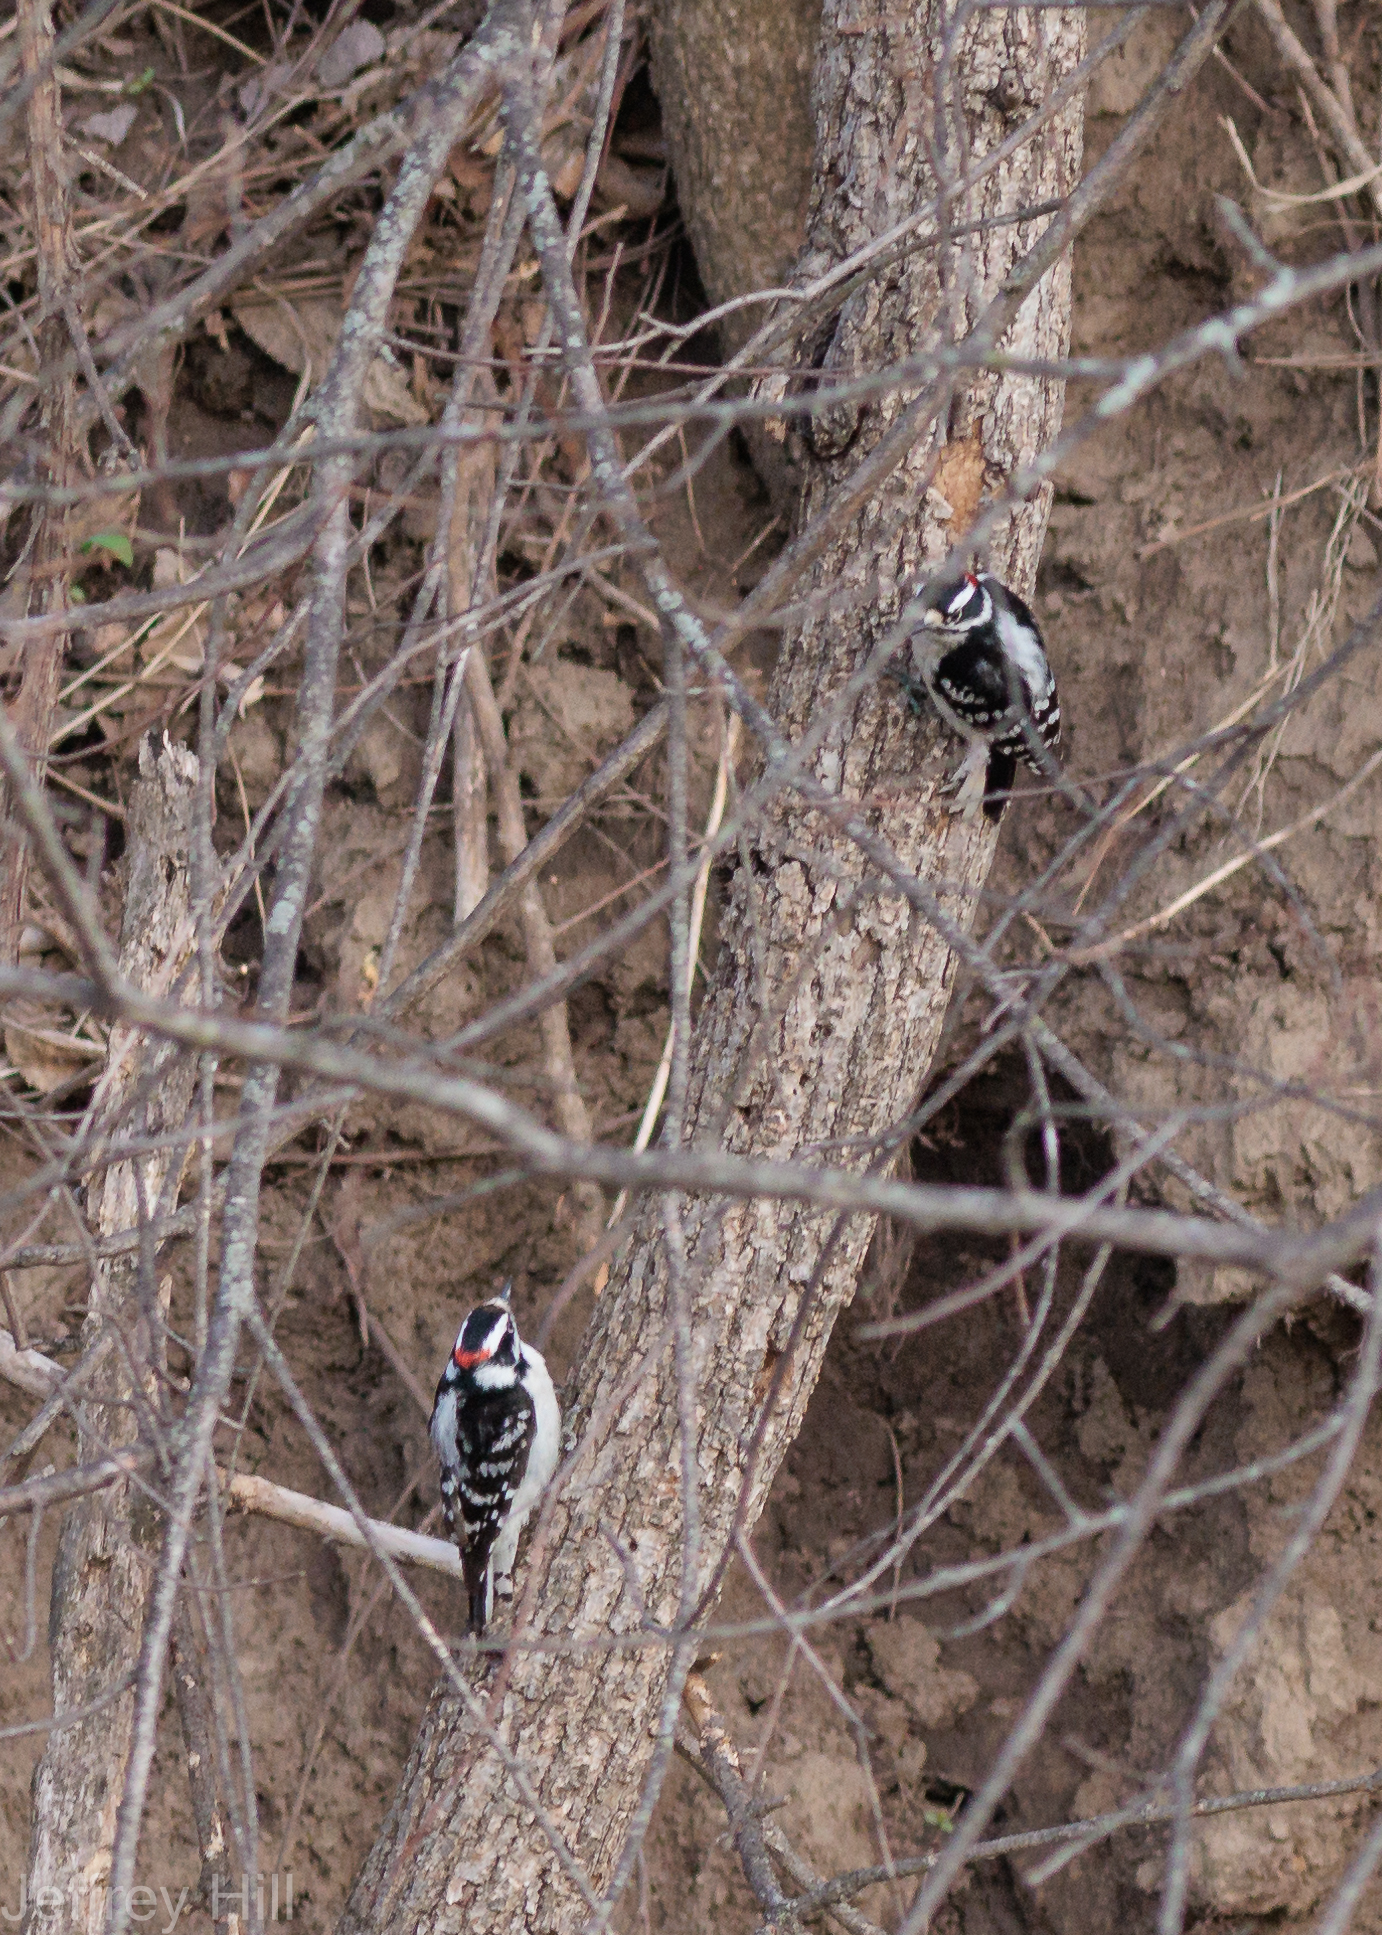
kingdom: Animalia
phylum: Chordata
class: Aves
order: Piciformes
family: Picidae
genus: Dryobates
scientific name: Dryobates pubescens
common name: Downy woodpecker
